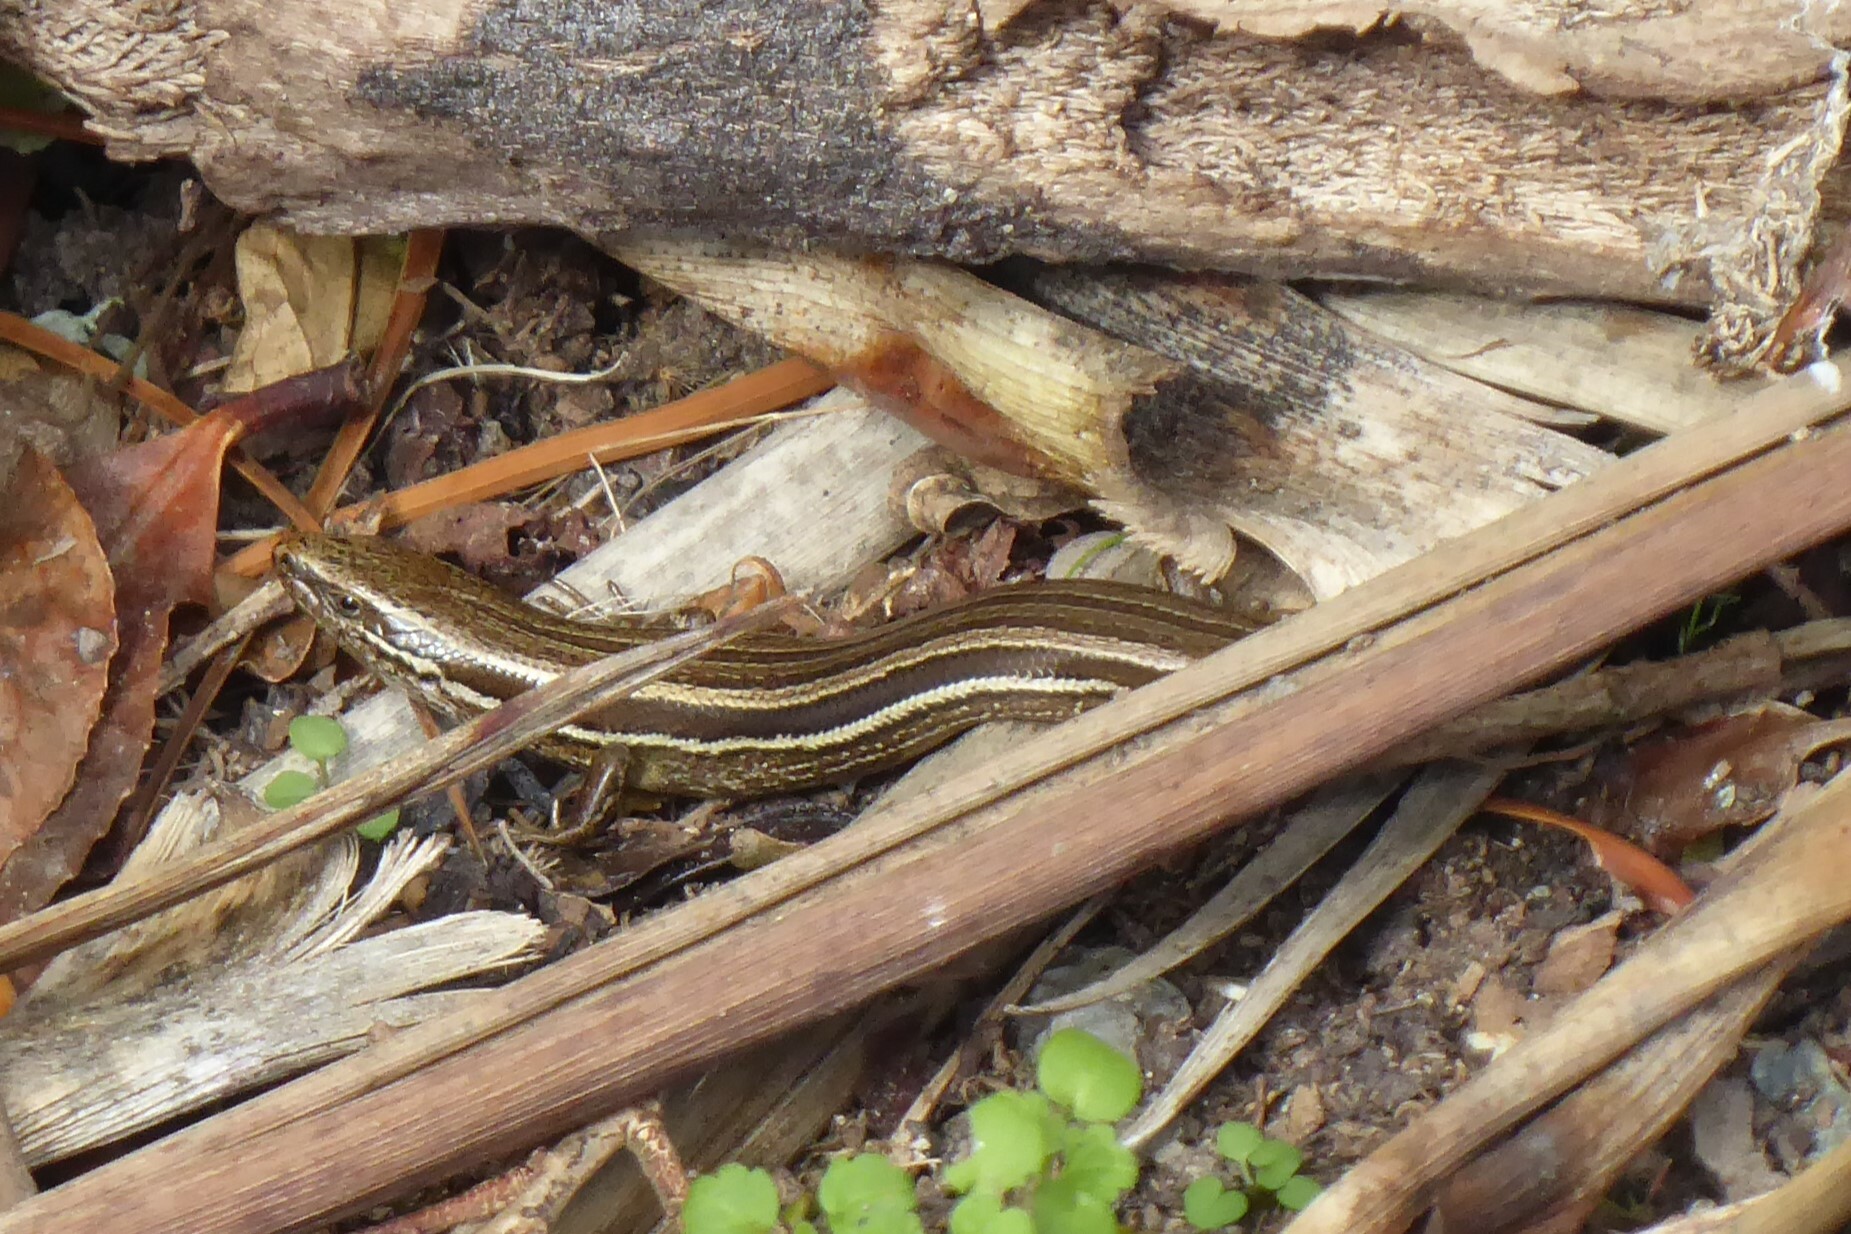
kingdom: Animalia
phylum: Chordata
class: Squamata
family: Scincidae
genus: Oligosoma
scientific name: Oligosoma polychroma
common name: Common new zealand skink
